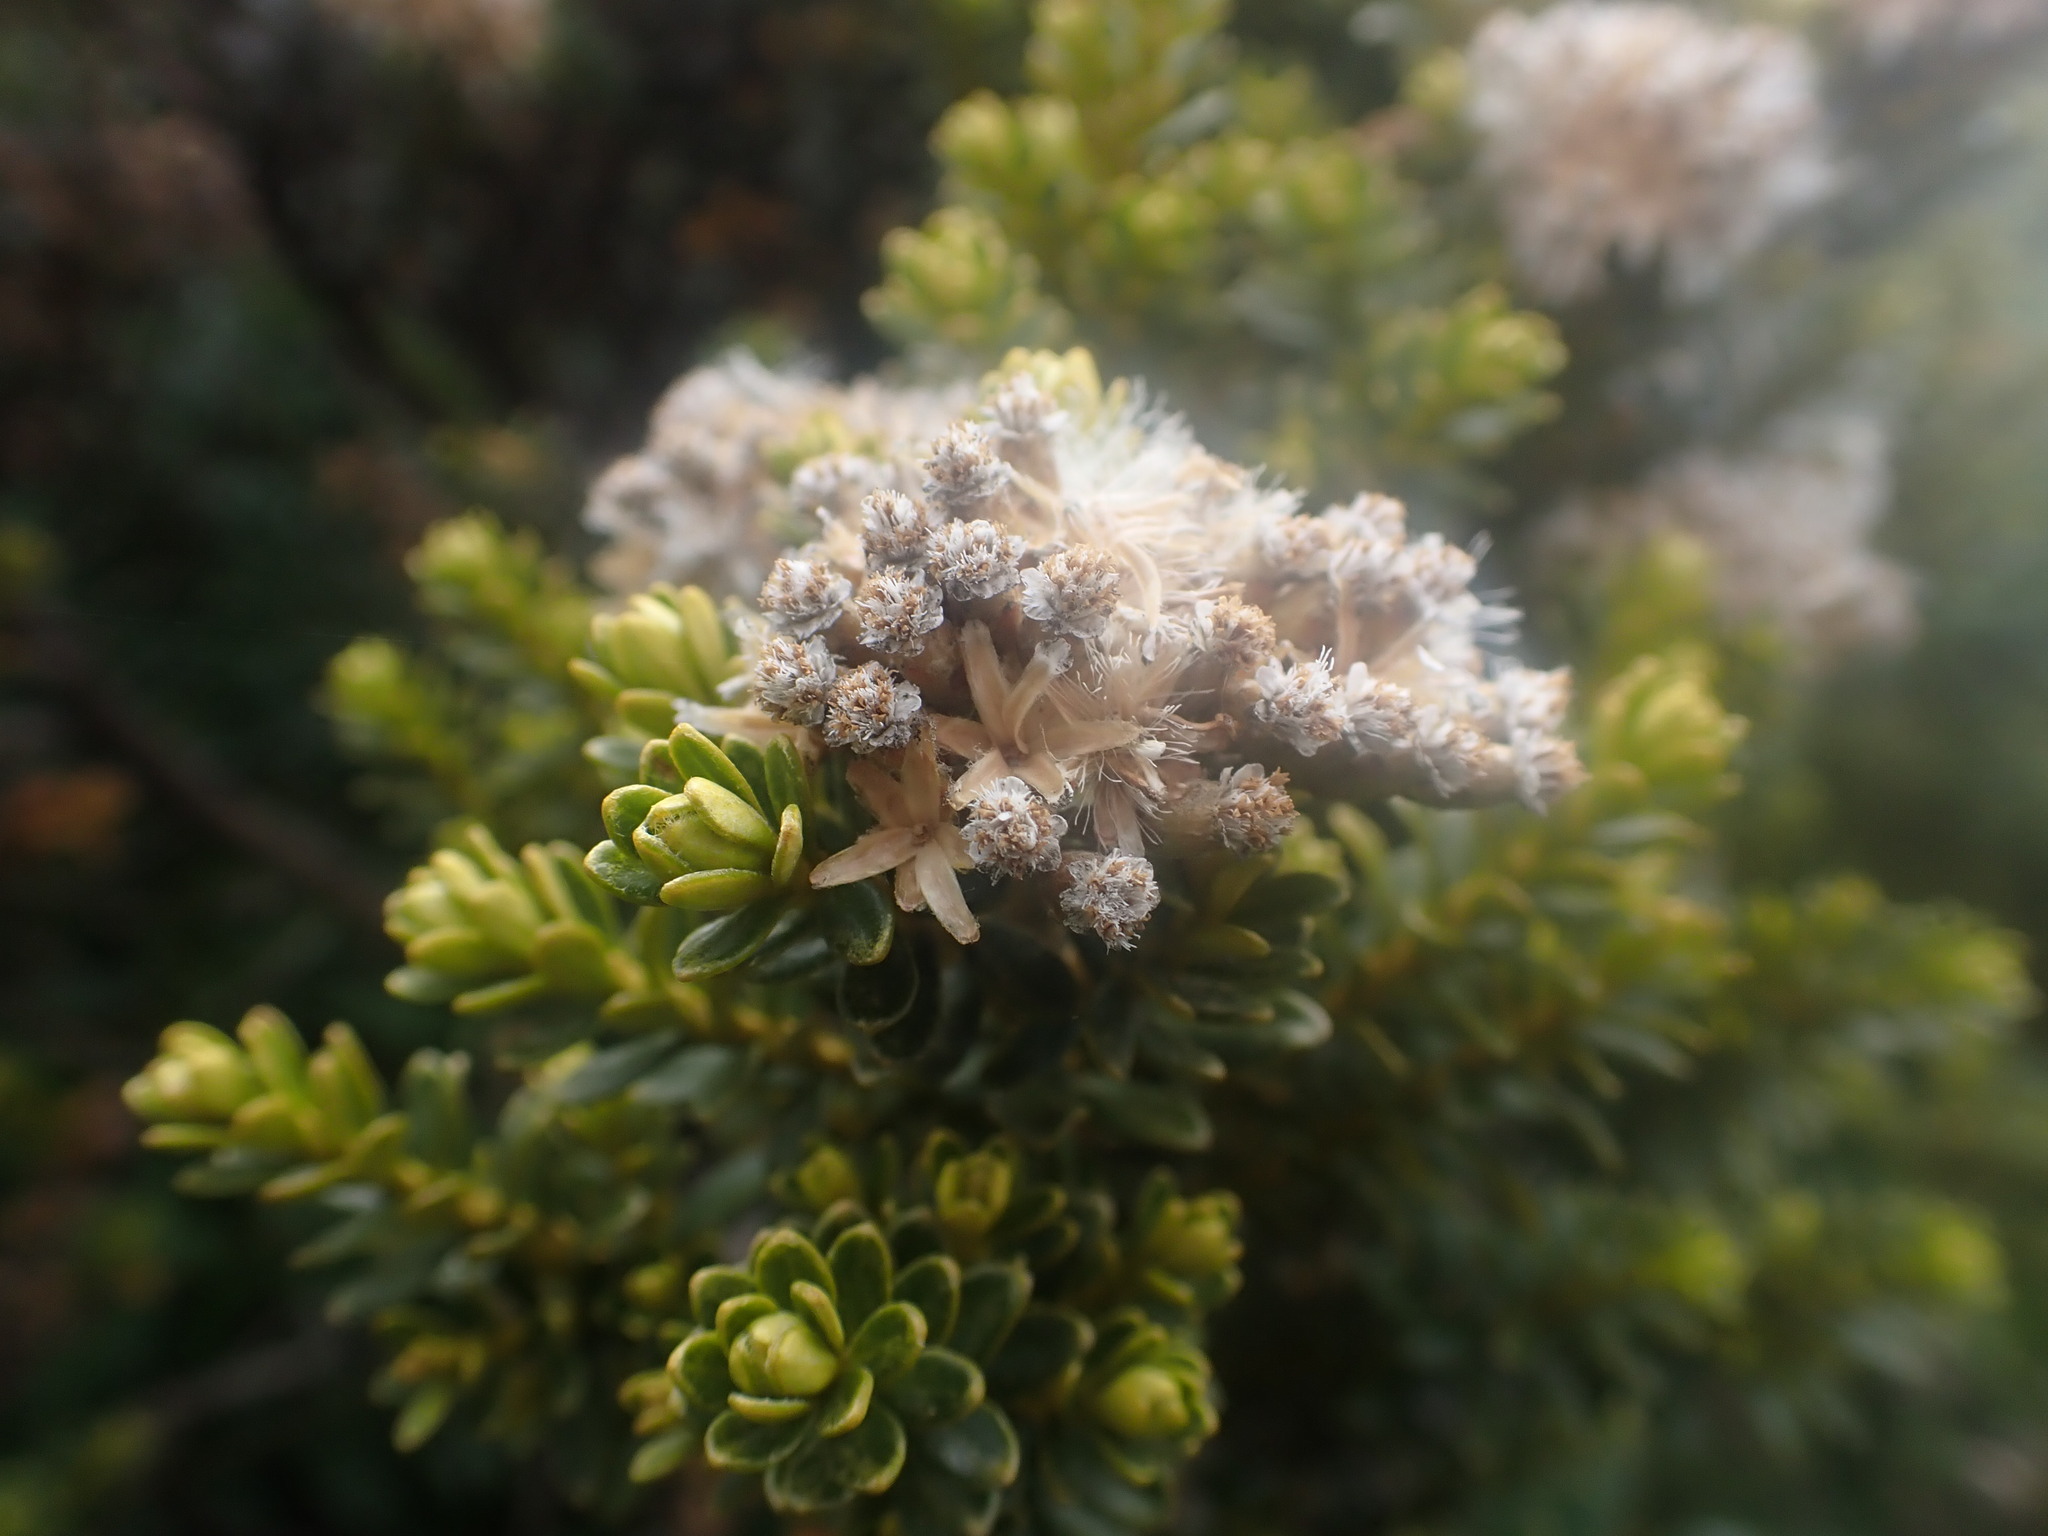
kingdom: Plantae
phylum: Tracheophyta
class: Magnoliopsida
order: Asterales
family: Asteraceae
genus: Ozothamnus
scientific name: Ozothamnus leptophyllus
